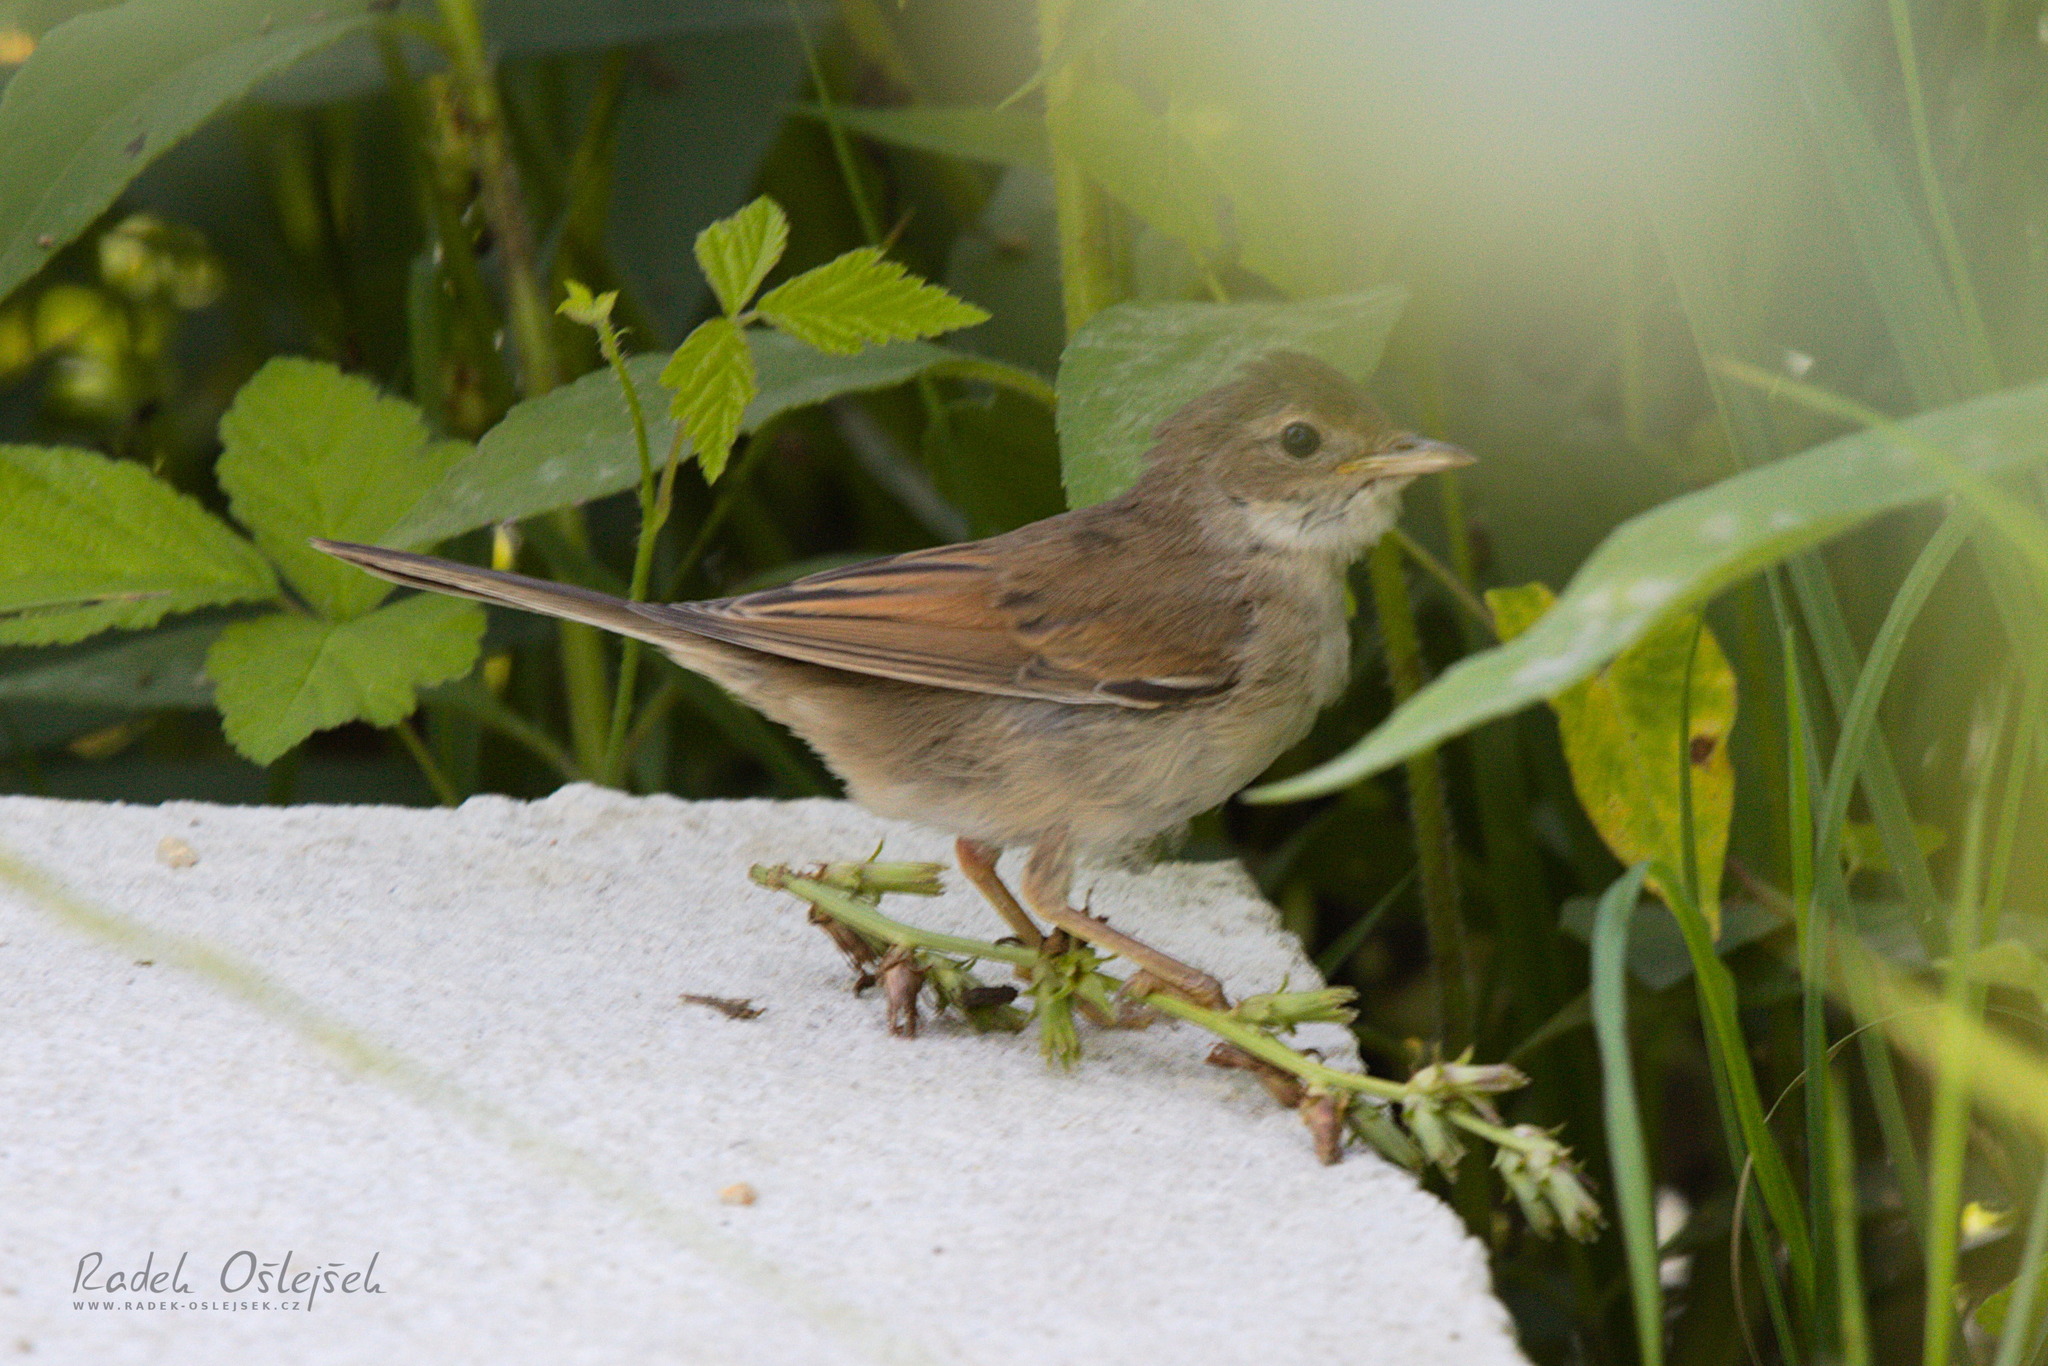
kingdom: Animalia
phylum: Chordata
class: Aves
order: Passeriformes
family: Sylviidae
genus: Sylvia
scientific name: Sylvia communis
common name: Common whitethroat
